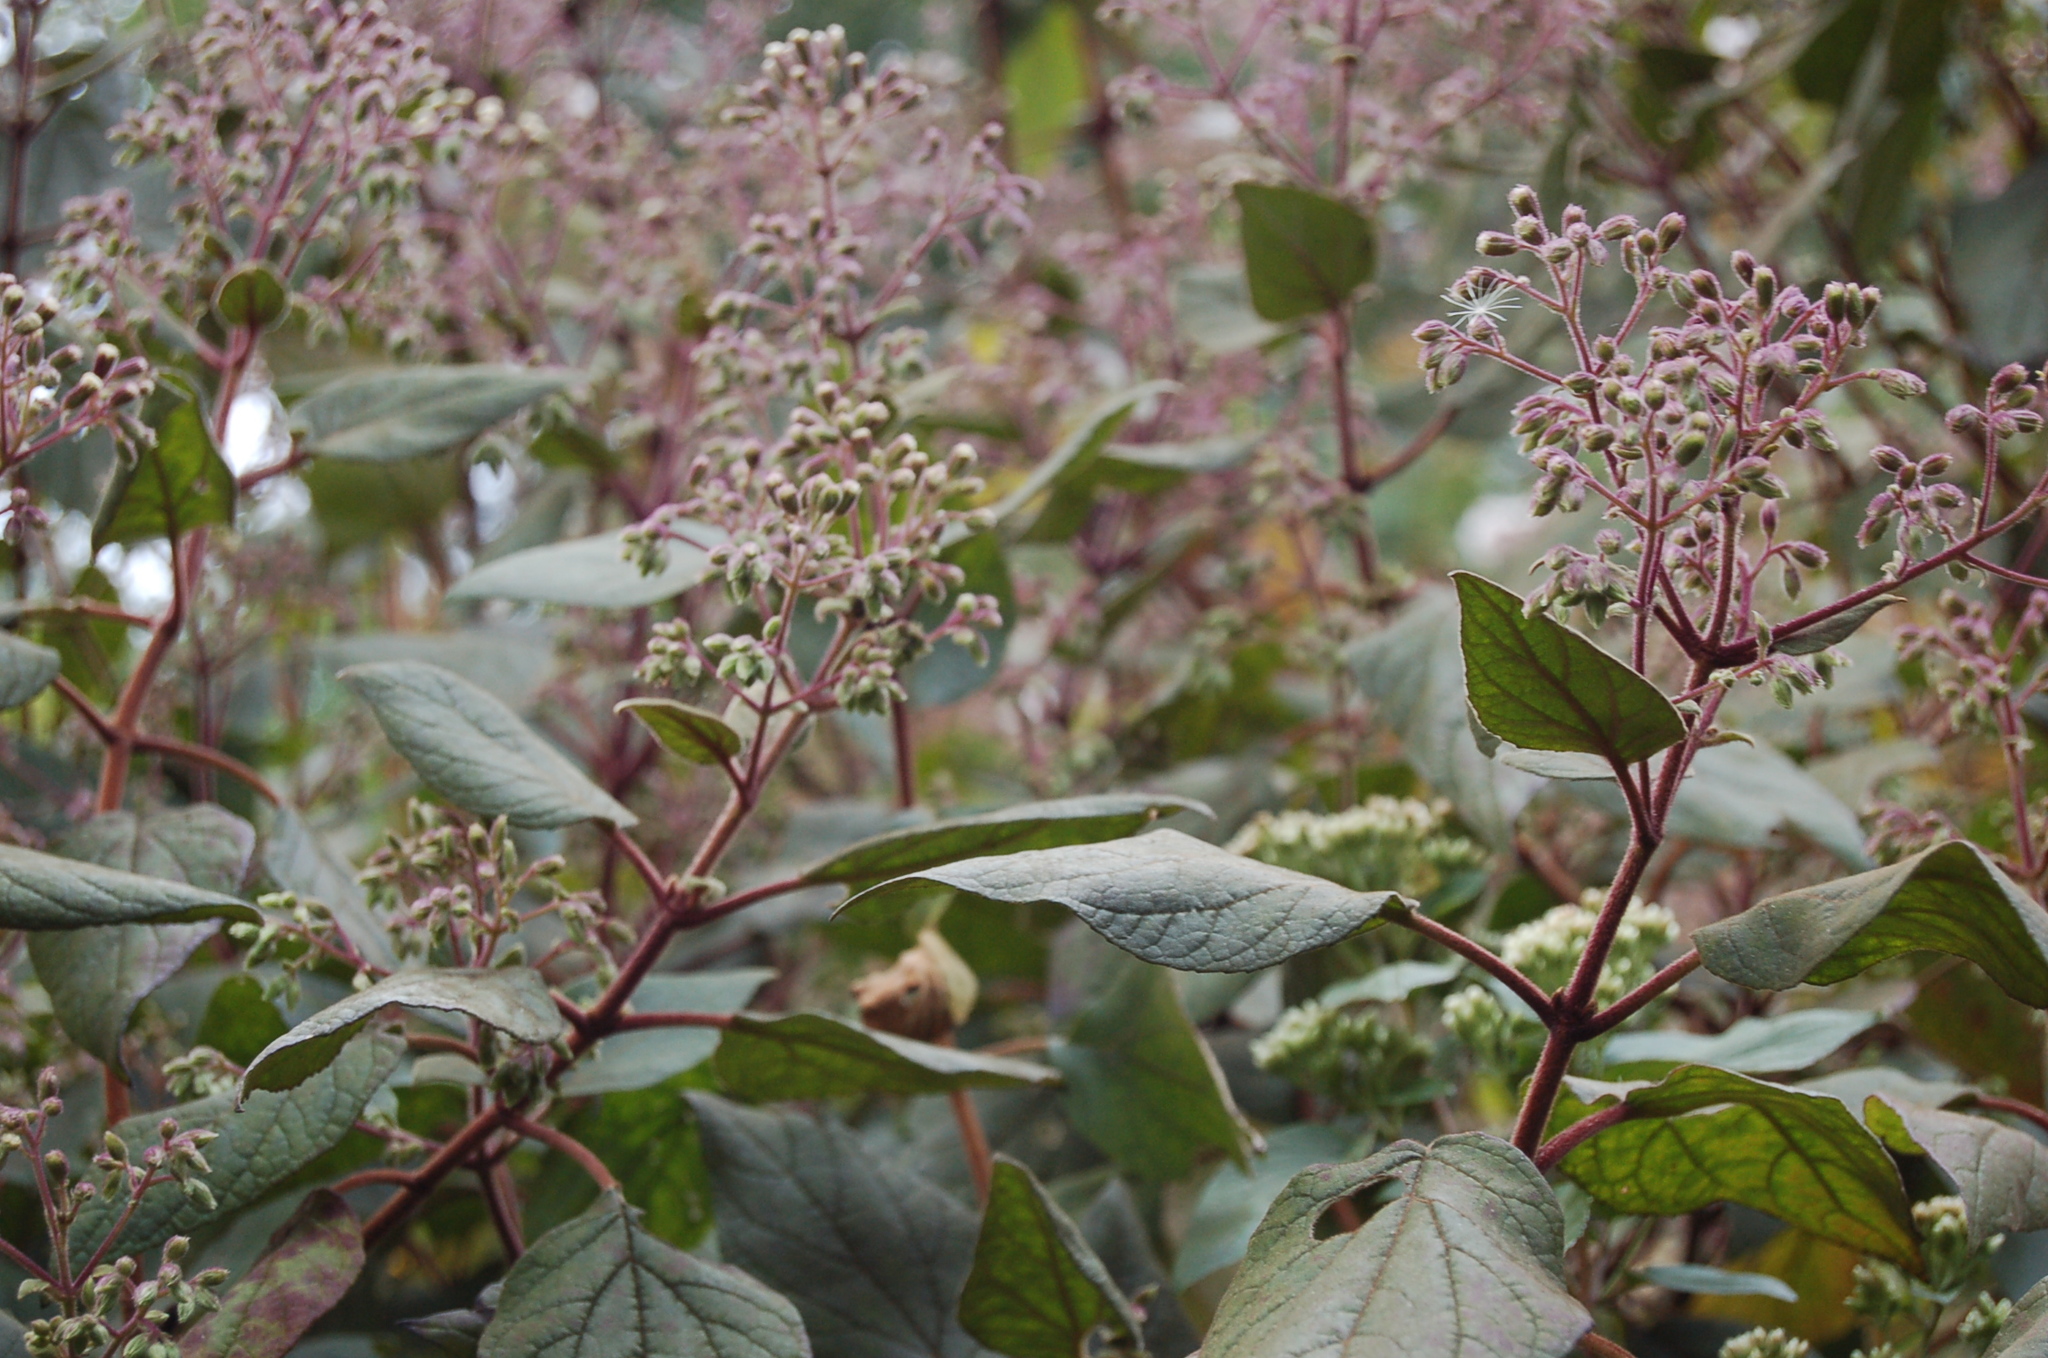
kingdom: Plantae
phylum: Tracheophyta
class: Magnoliopsida
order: Asterales
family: Asteraceae
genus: Bartlettina
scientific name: Bartlettina sordida
